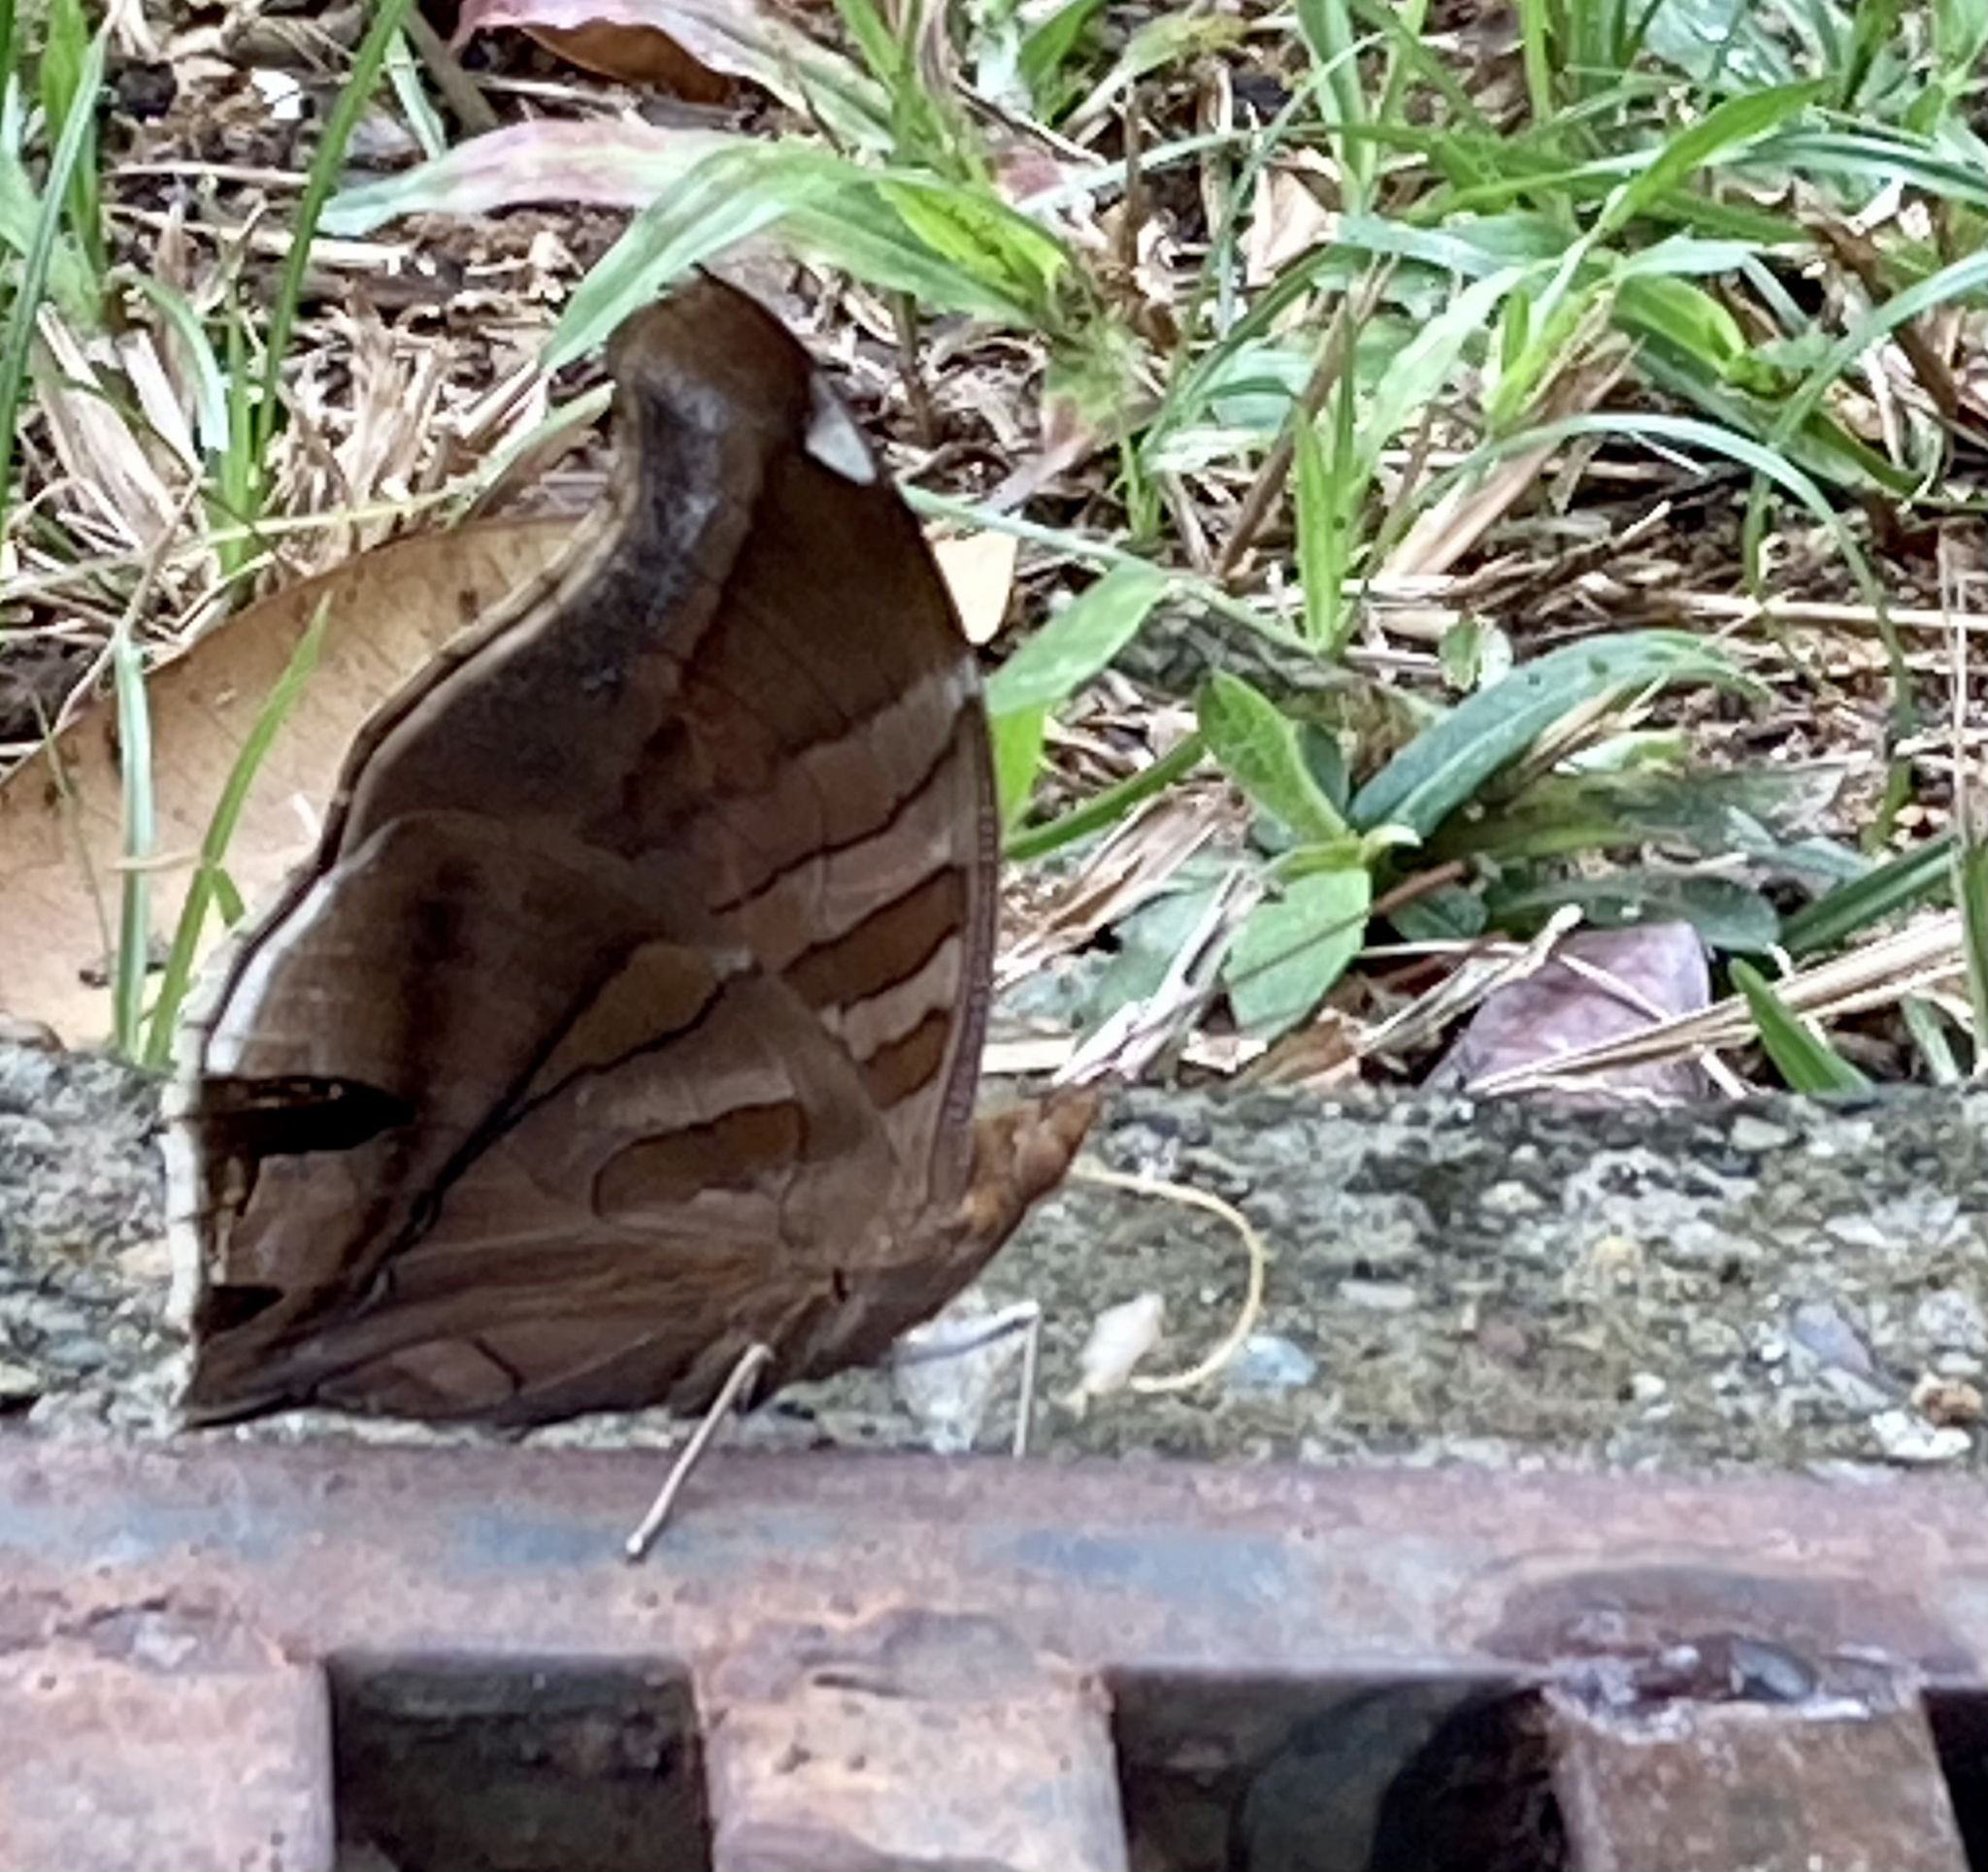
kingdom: Animalia
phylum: Arthropoda
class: Insecta
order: Lepidoptera
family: Nymphalidae
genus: Historis
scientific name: Historis odius
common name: Orion cecropian
